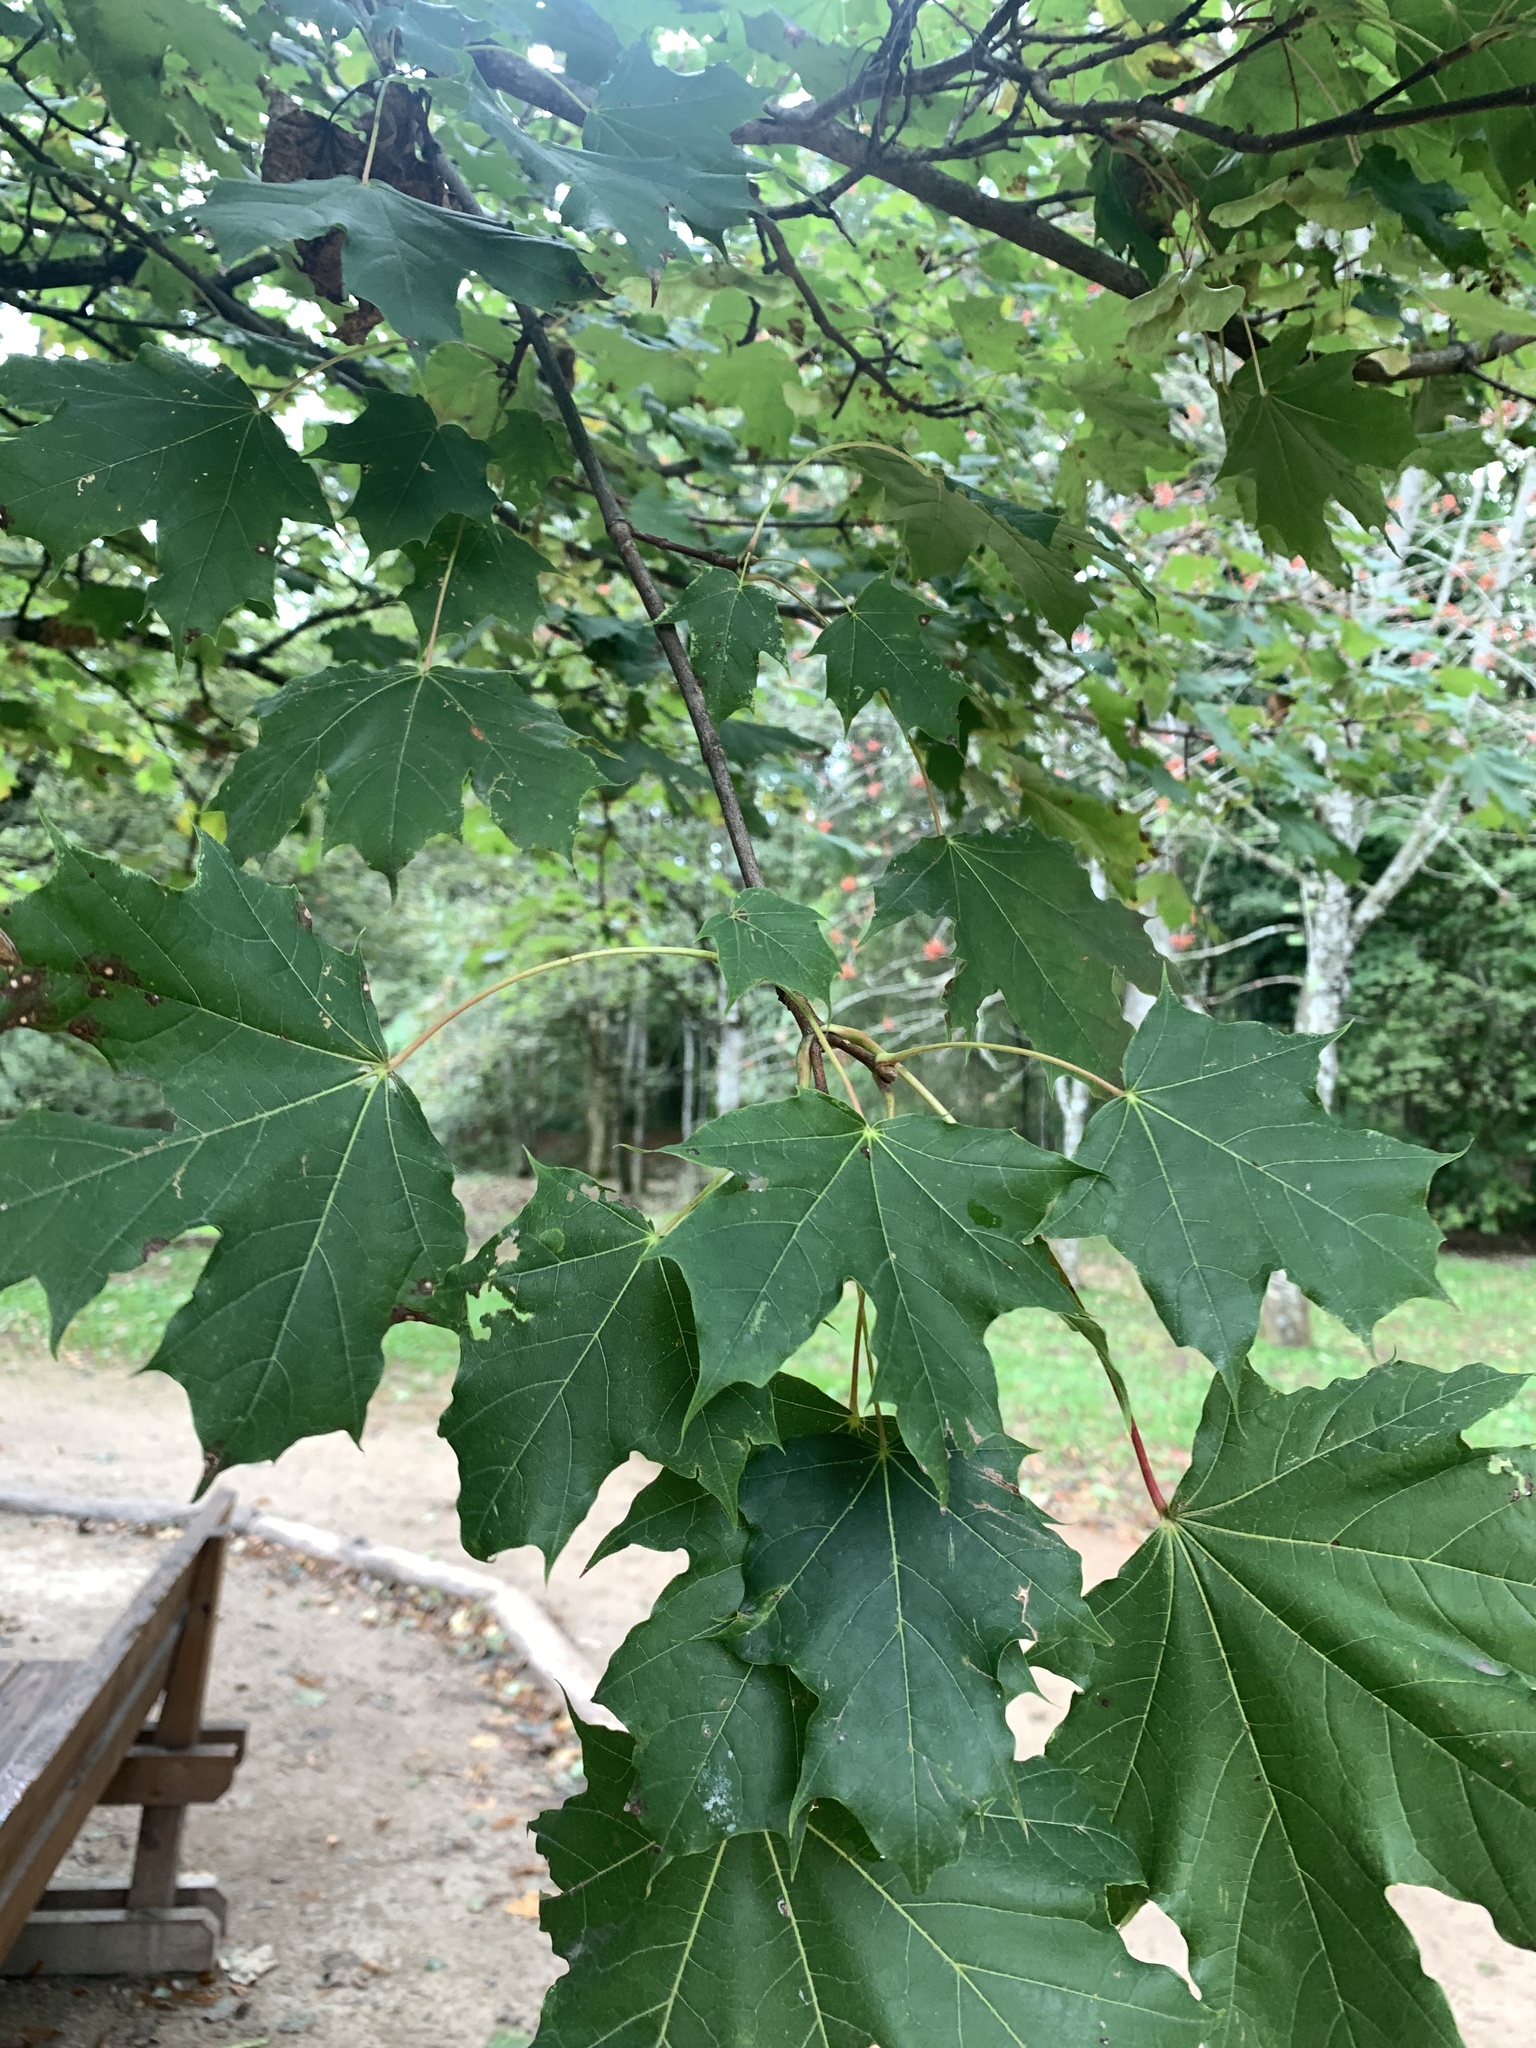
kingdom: Plantae
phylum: Tracheophyta
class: Magnoliopsida
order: Sapindales
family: Sapindaceae
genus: Acer
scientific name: Acer platanoides
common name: Norway maple
